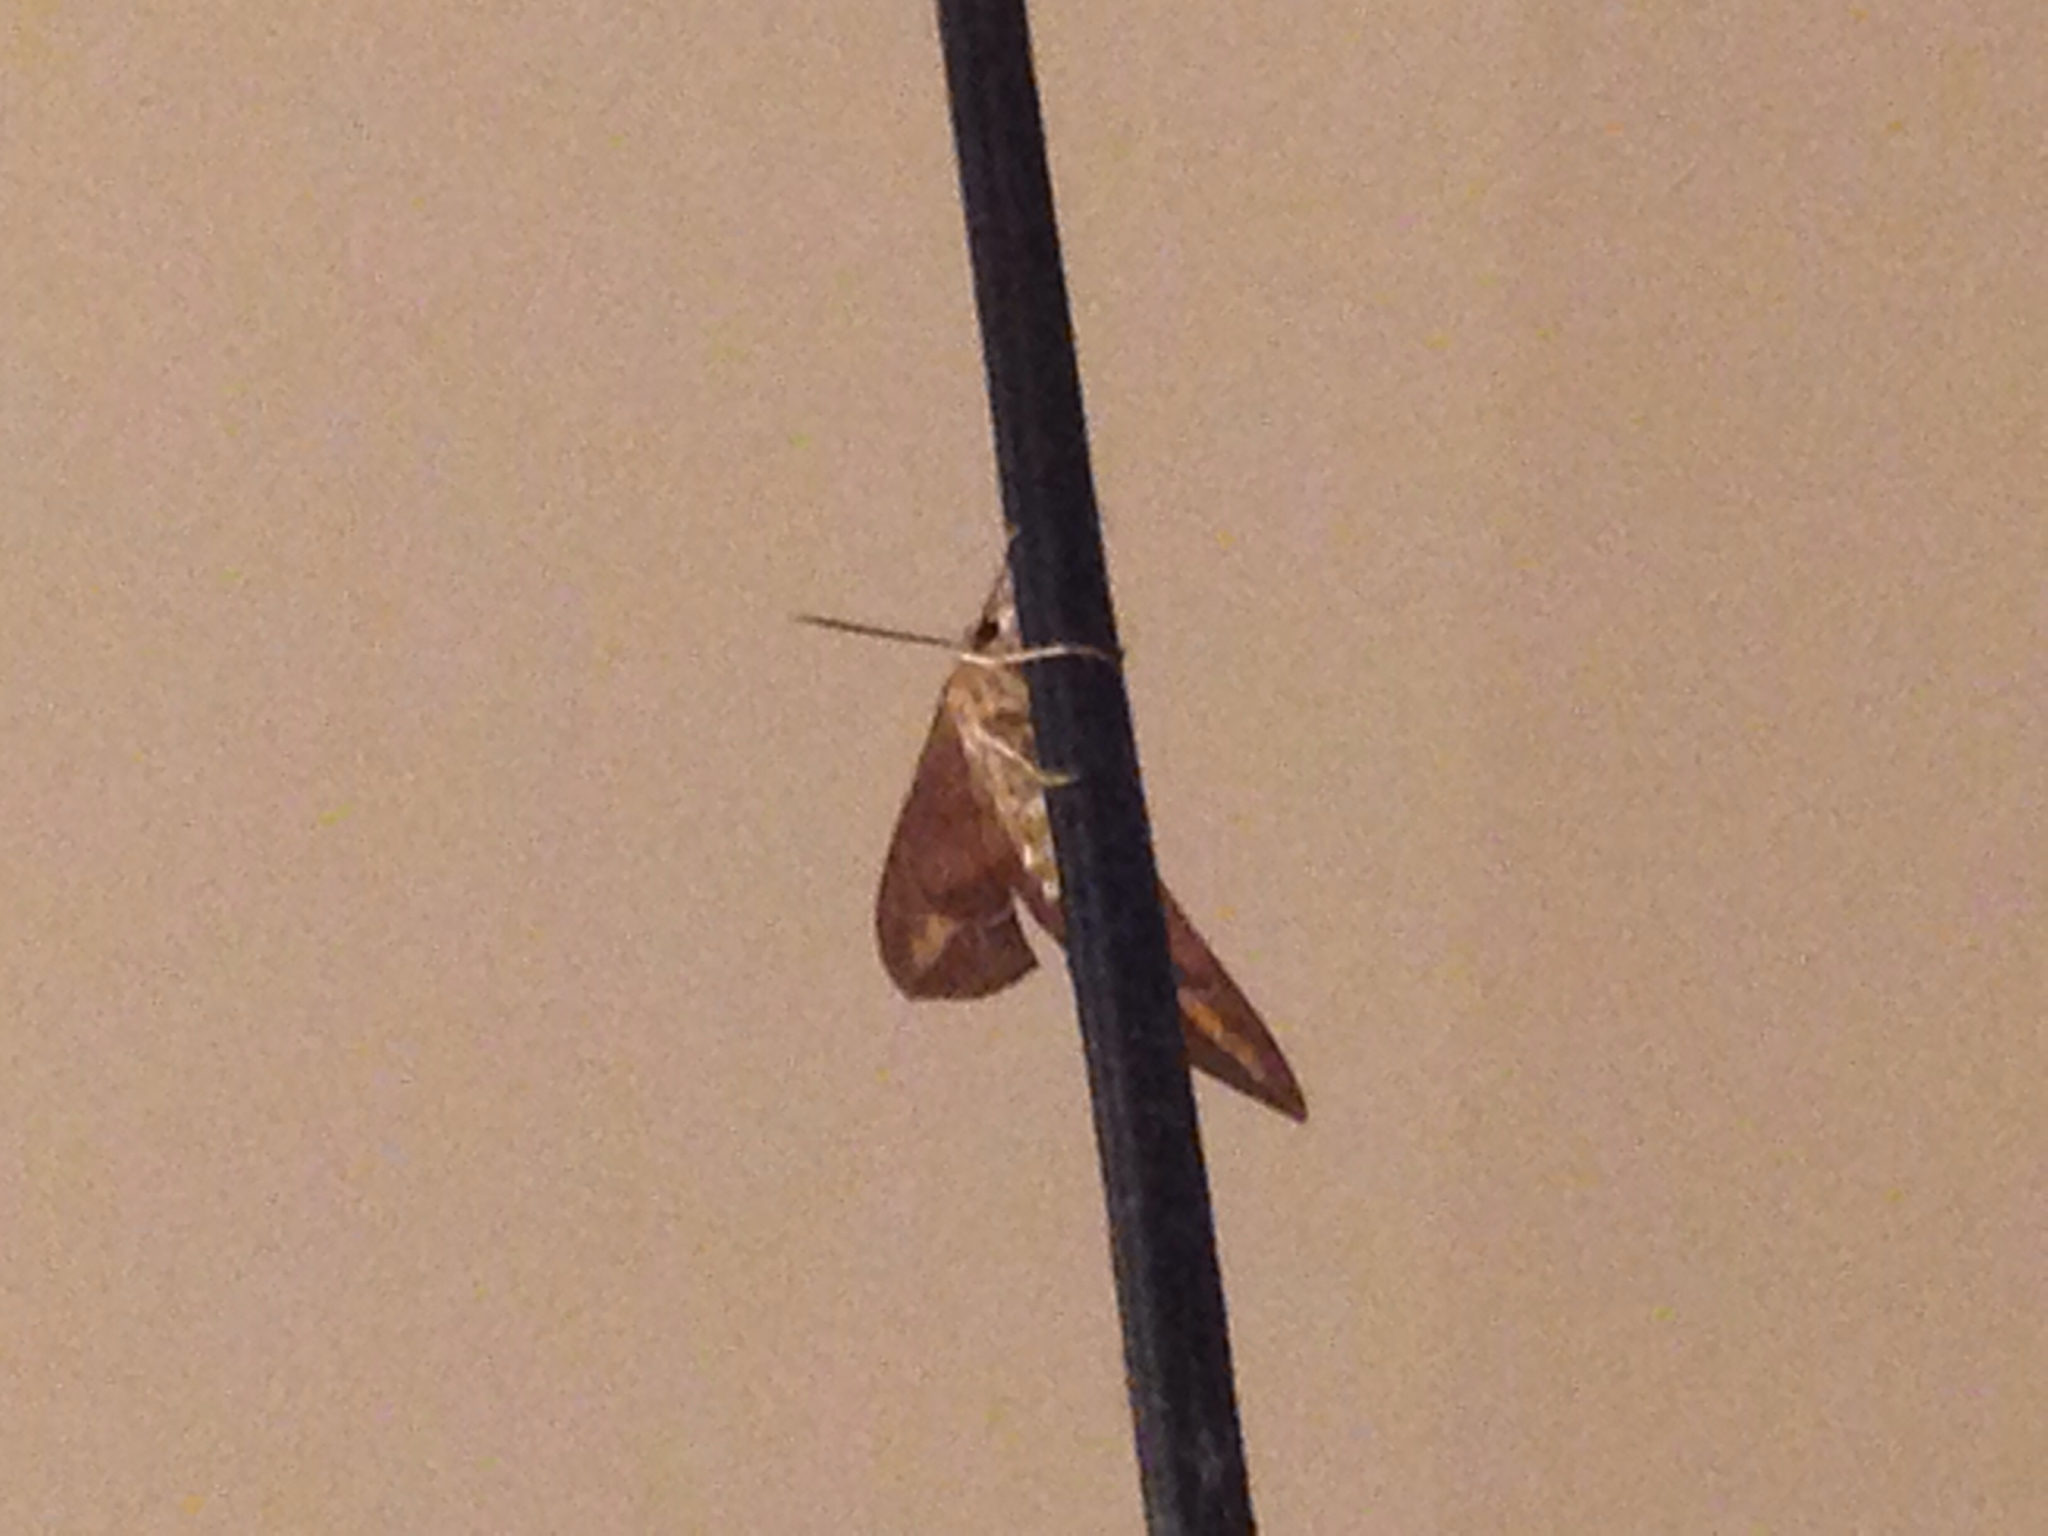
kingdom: Animalia
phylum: Arthropoda
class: Insecta
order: Lepidoptera
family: Sphingidae
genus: Hyles
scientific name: Hyles lineata
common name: White-lined sphinx
